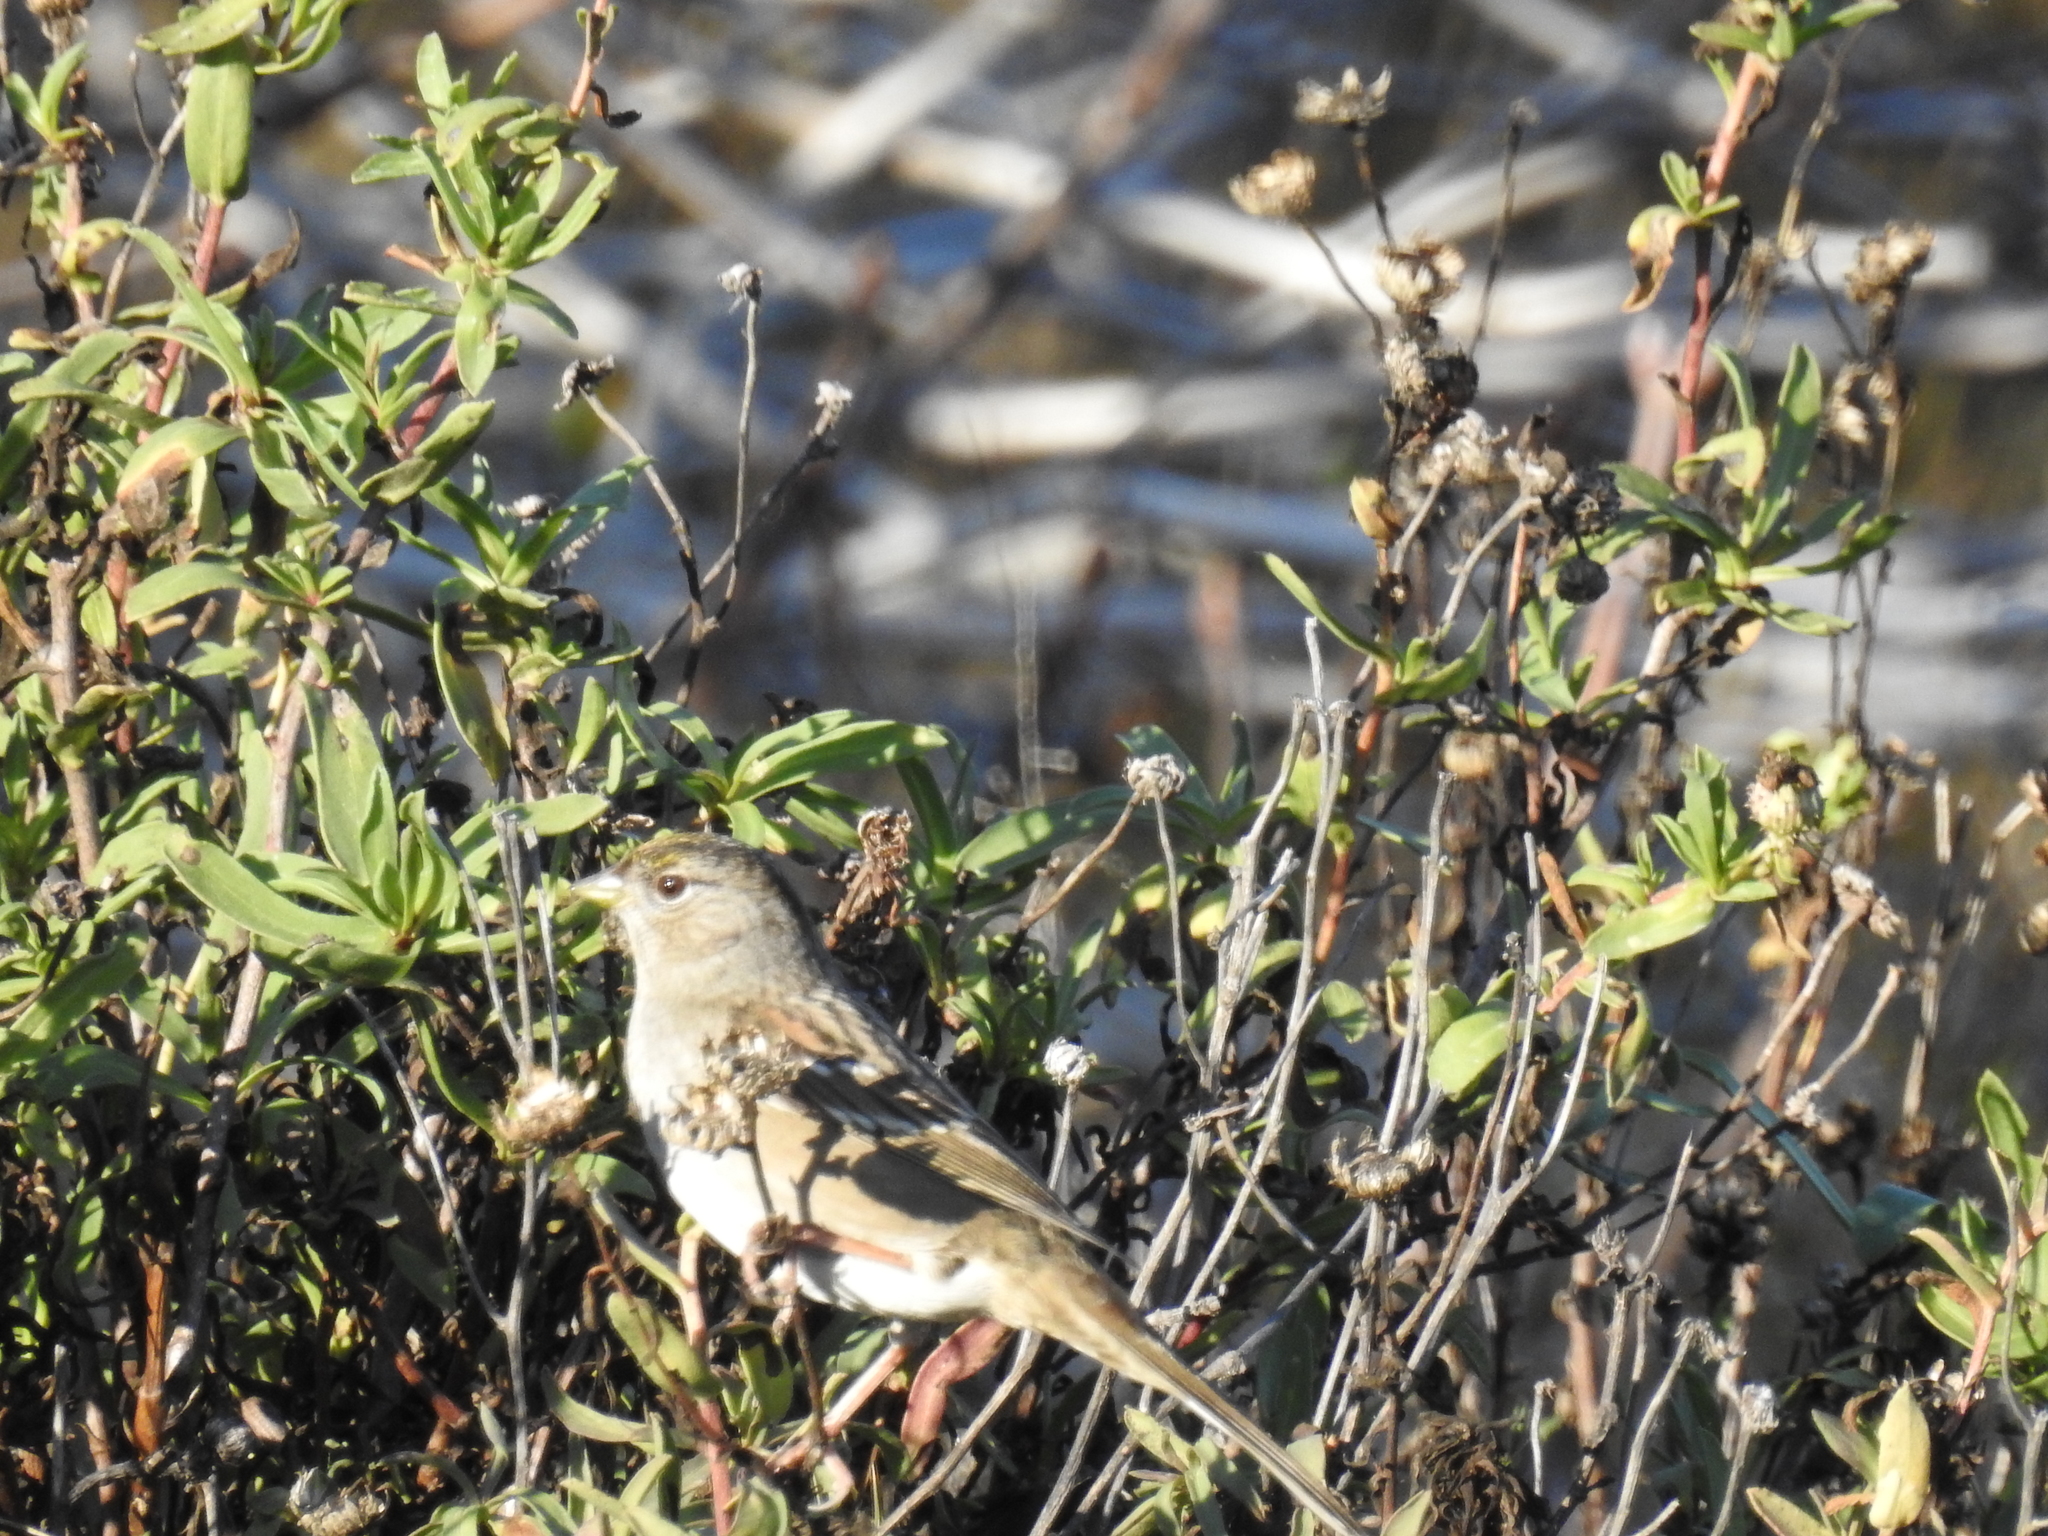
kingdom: Animalia
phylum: Chordata
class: Aves
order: Passeriformes
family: Passerellidae
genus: Zonotrichia
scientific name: Zonotrichia atricapilla
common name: Golden-crowned sparrow
